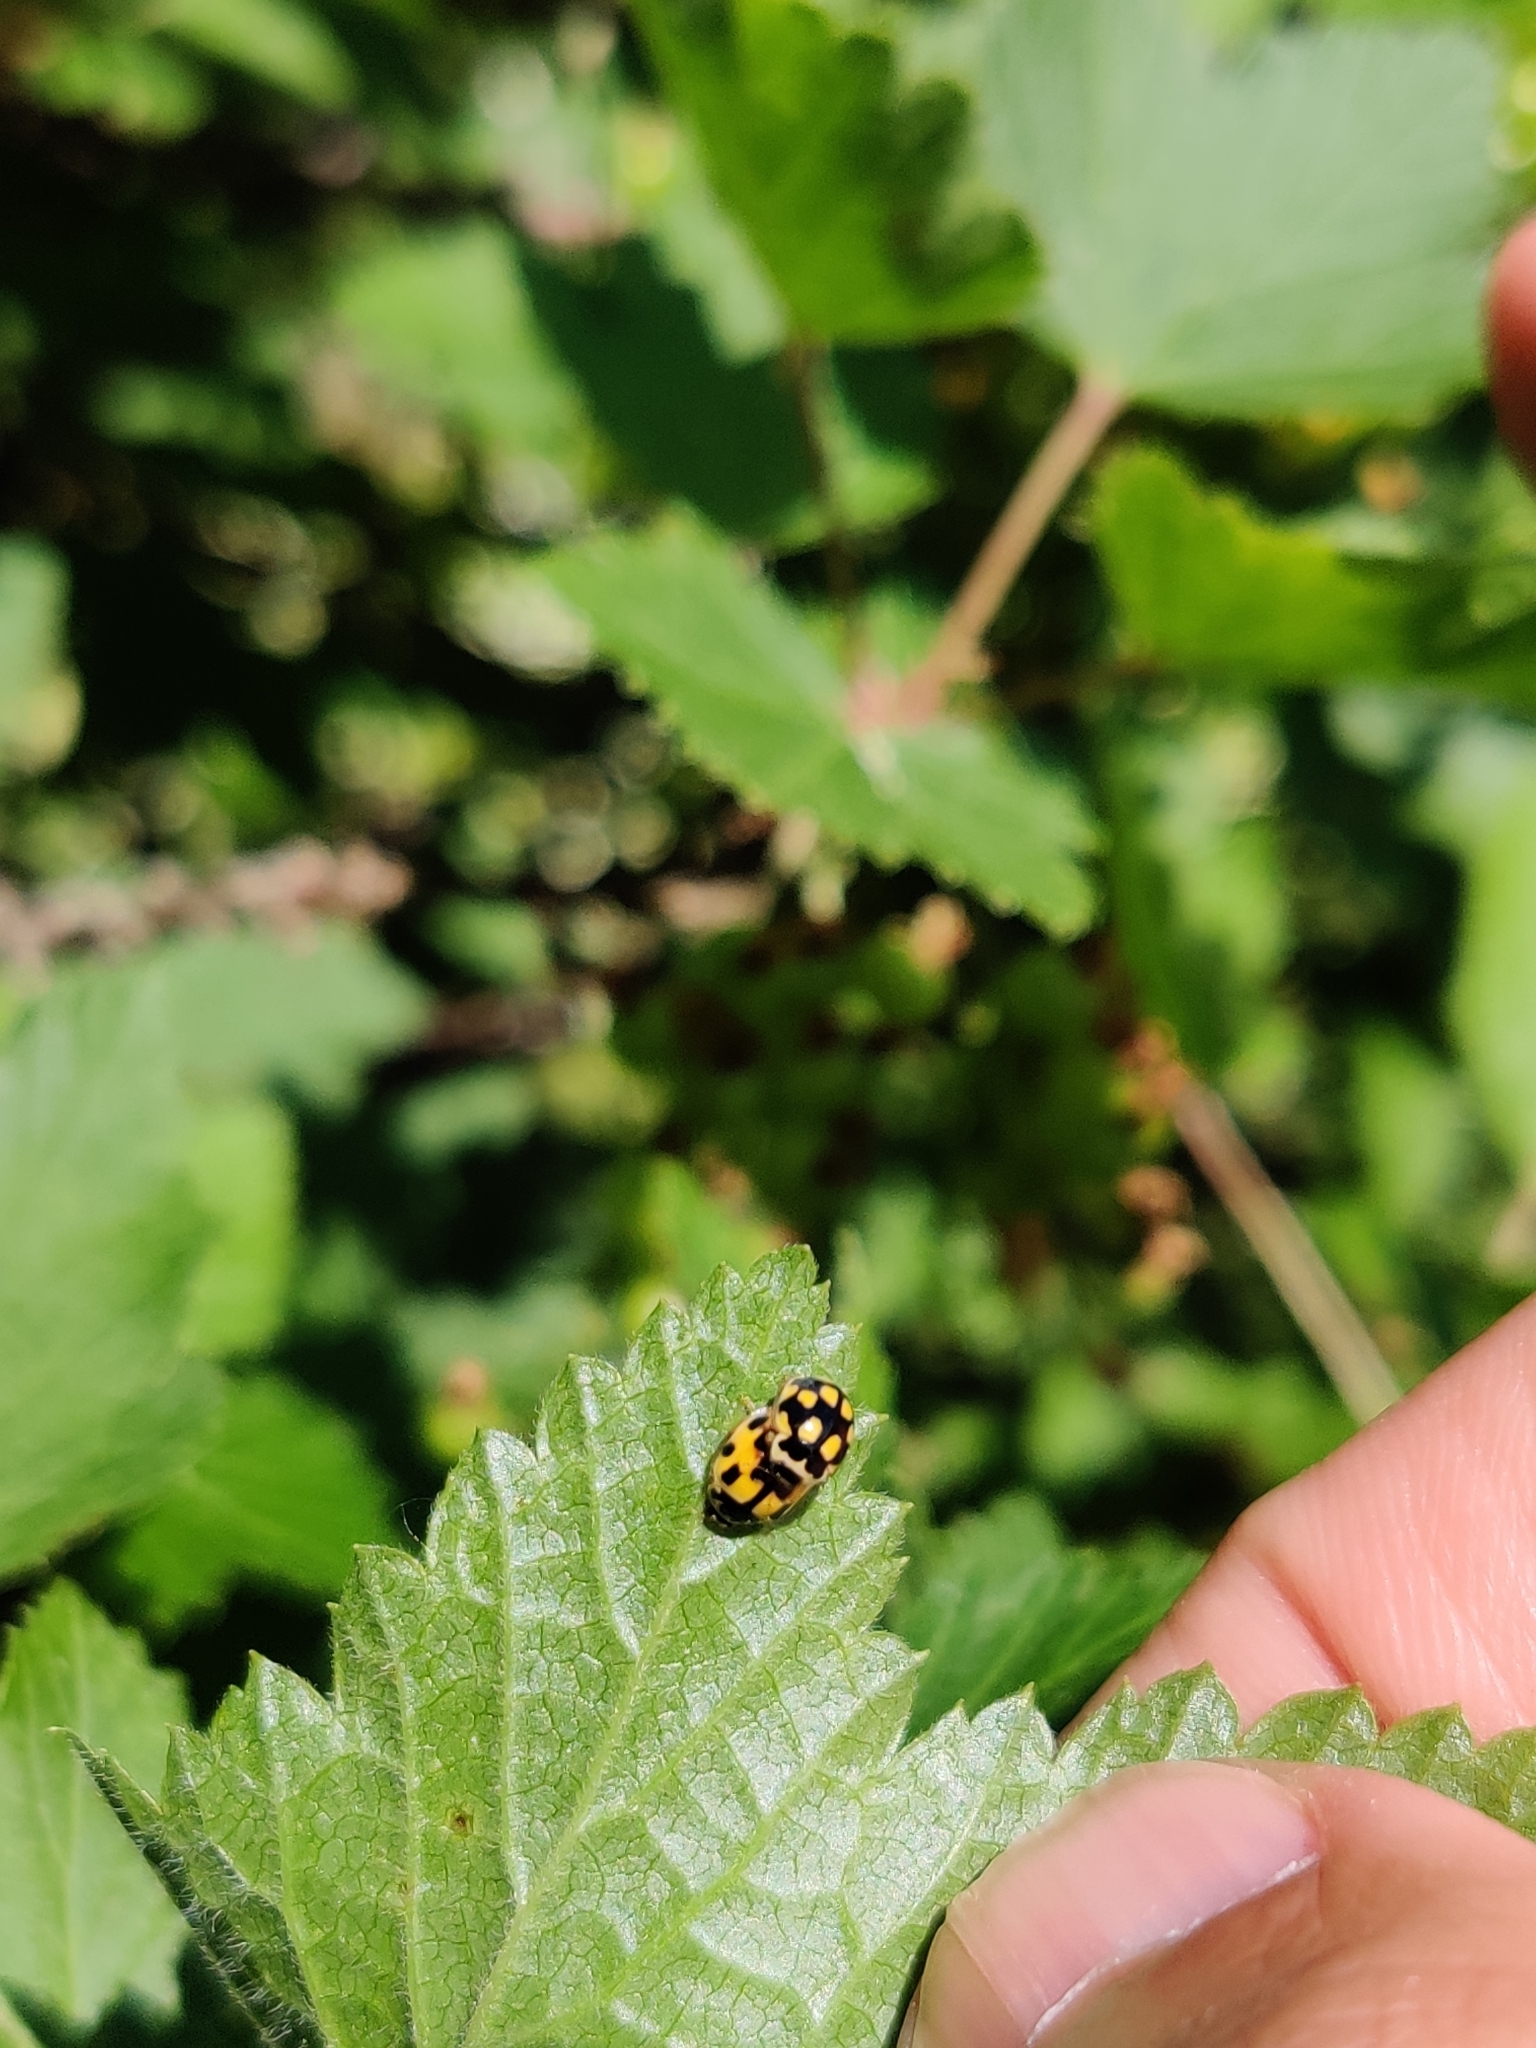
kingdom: Animalia
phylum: Arthropoda
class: Insecta
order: Coleoptera
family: Coccinellidae
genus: Propylaea
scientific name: Propylaea quatuordecimpunctata
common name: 14-spotted ladybird beetle
